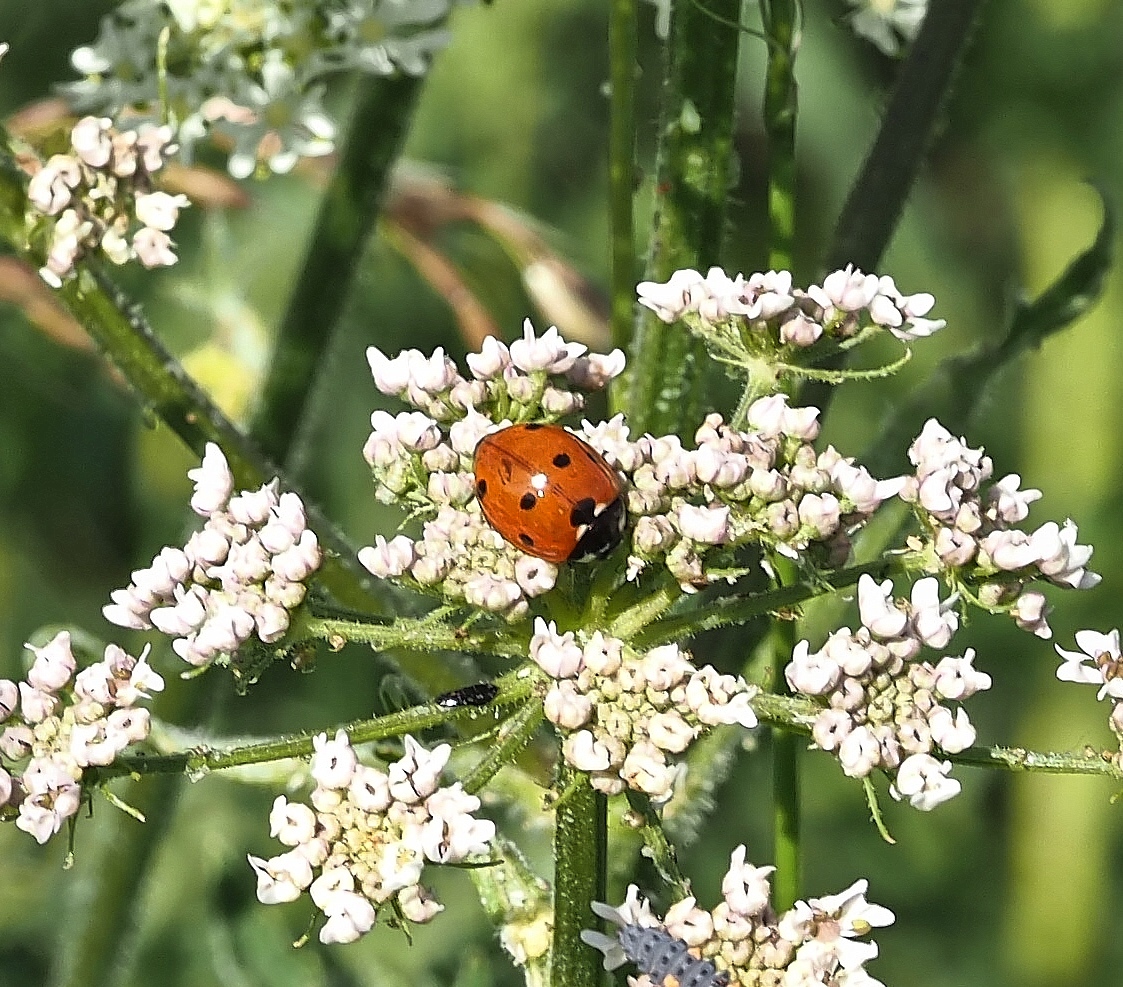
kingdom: Animalia
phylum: Arthropoda
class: Insecta
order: Coleoptera
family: Coccinellidae
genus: Coccinella
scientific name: Coccinella septempunctata
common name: Sevenspotted lady beetle
